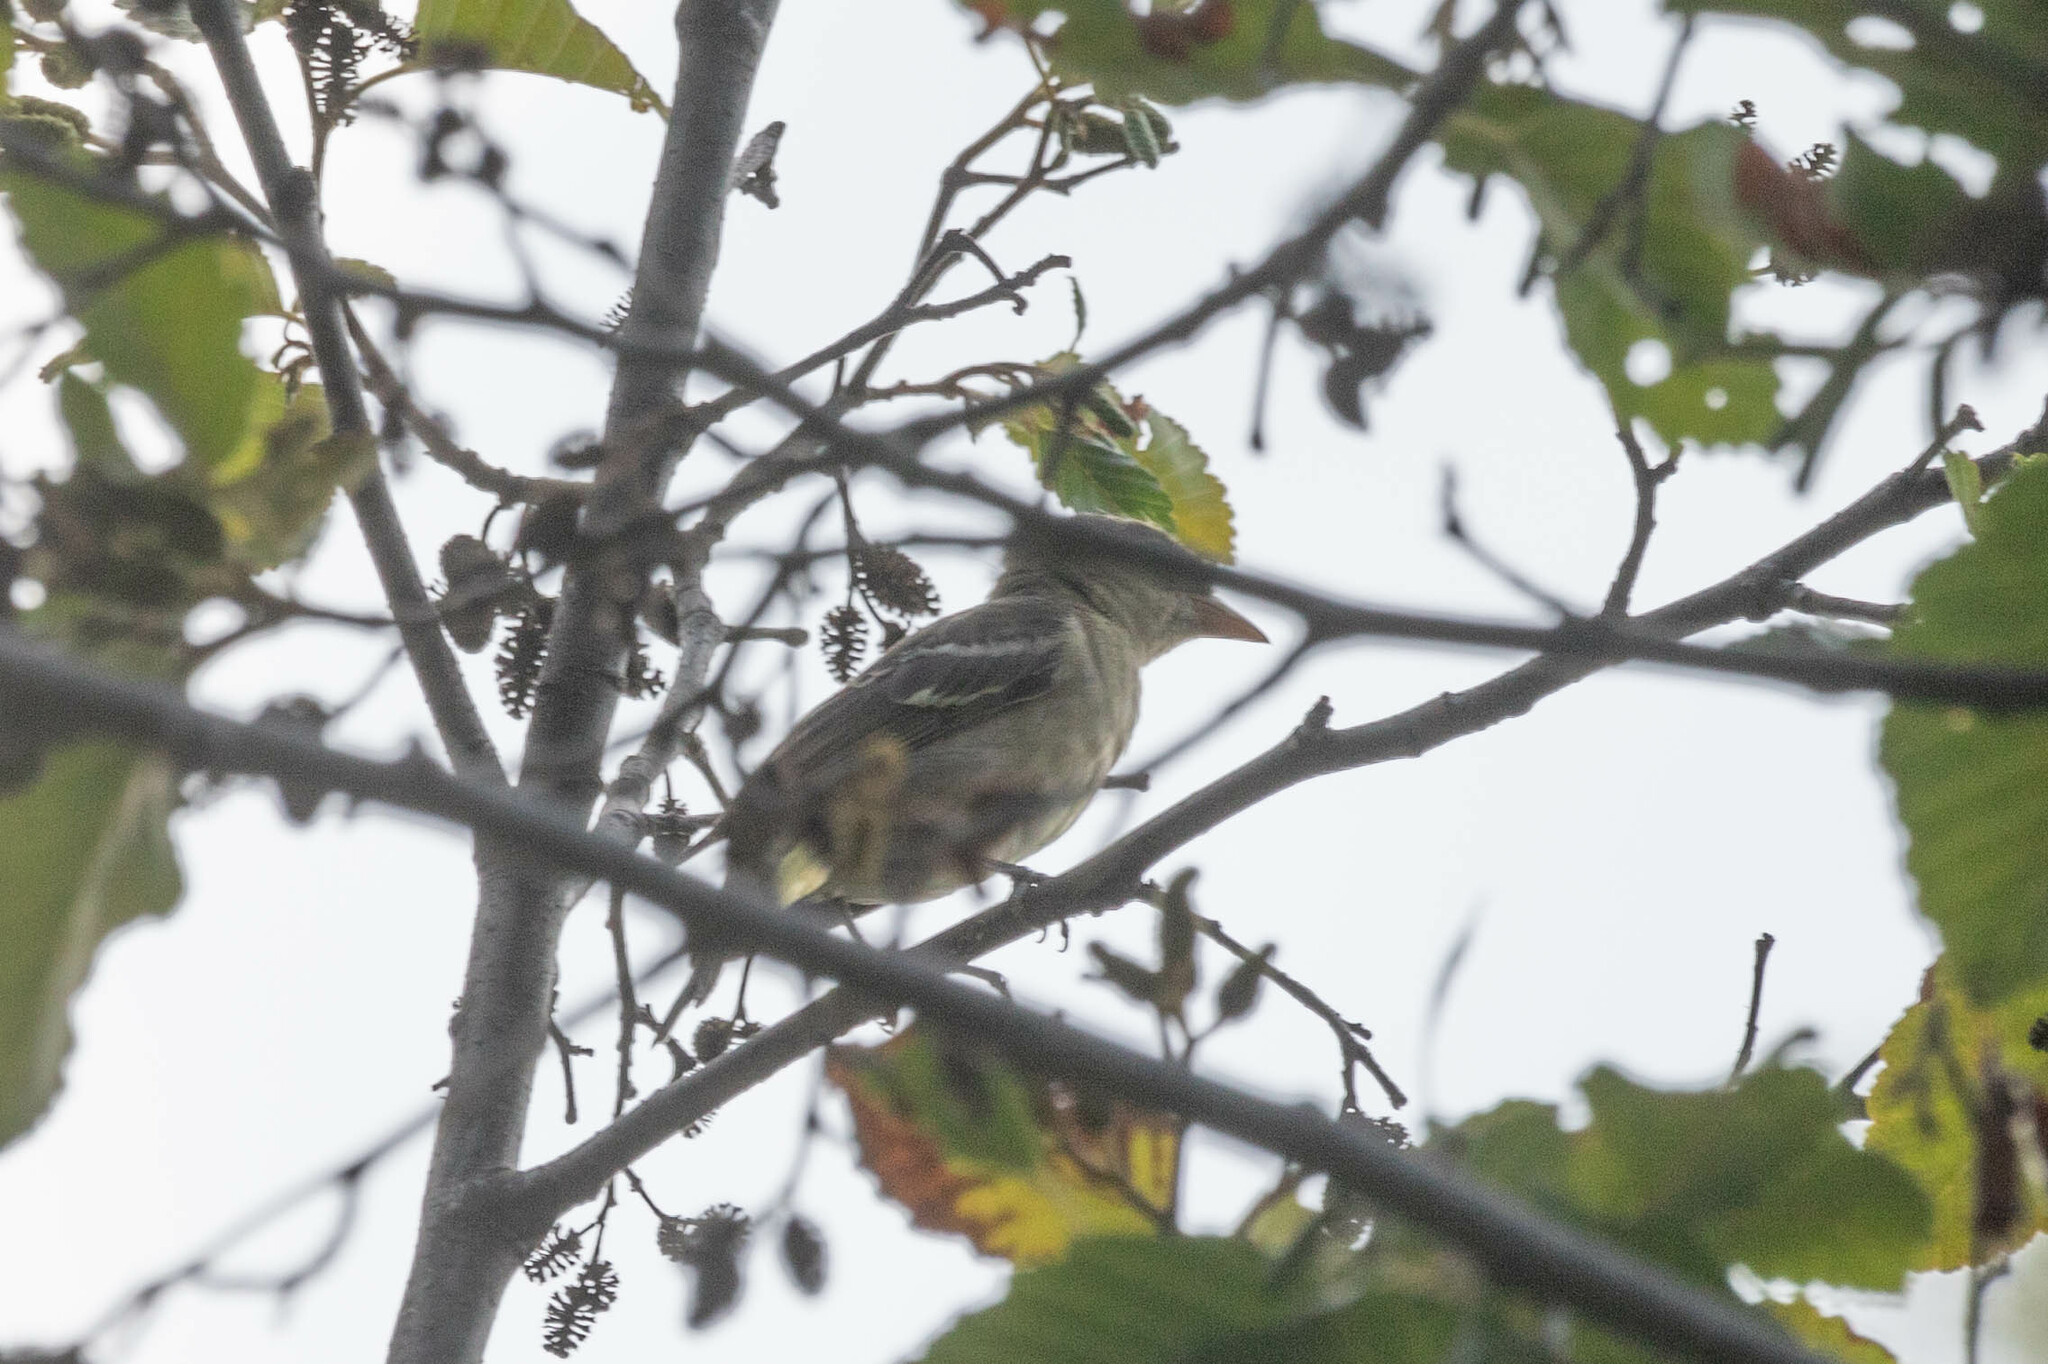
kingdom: Animalia
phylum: Chordata
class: Aves
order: Passeriformes
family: Cardinalidae
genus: Piranga
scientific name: Piranga ludoviciana
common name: Western tanager
